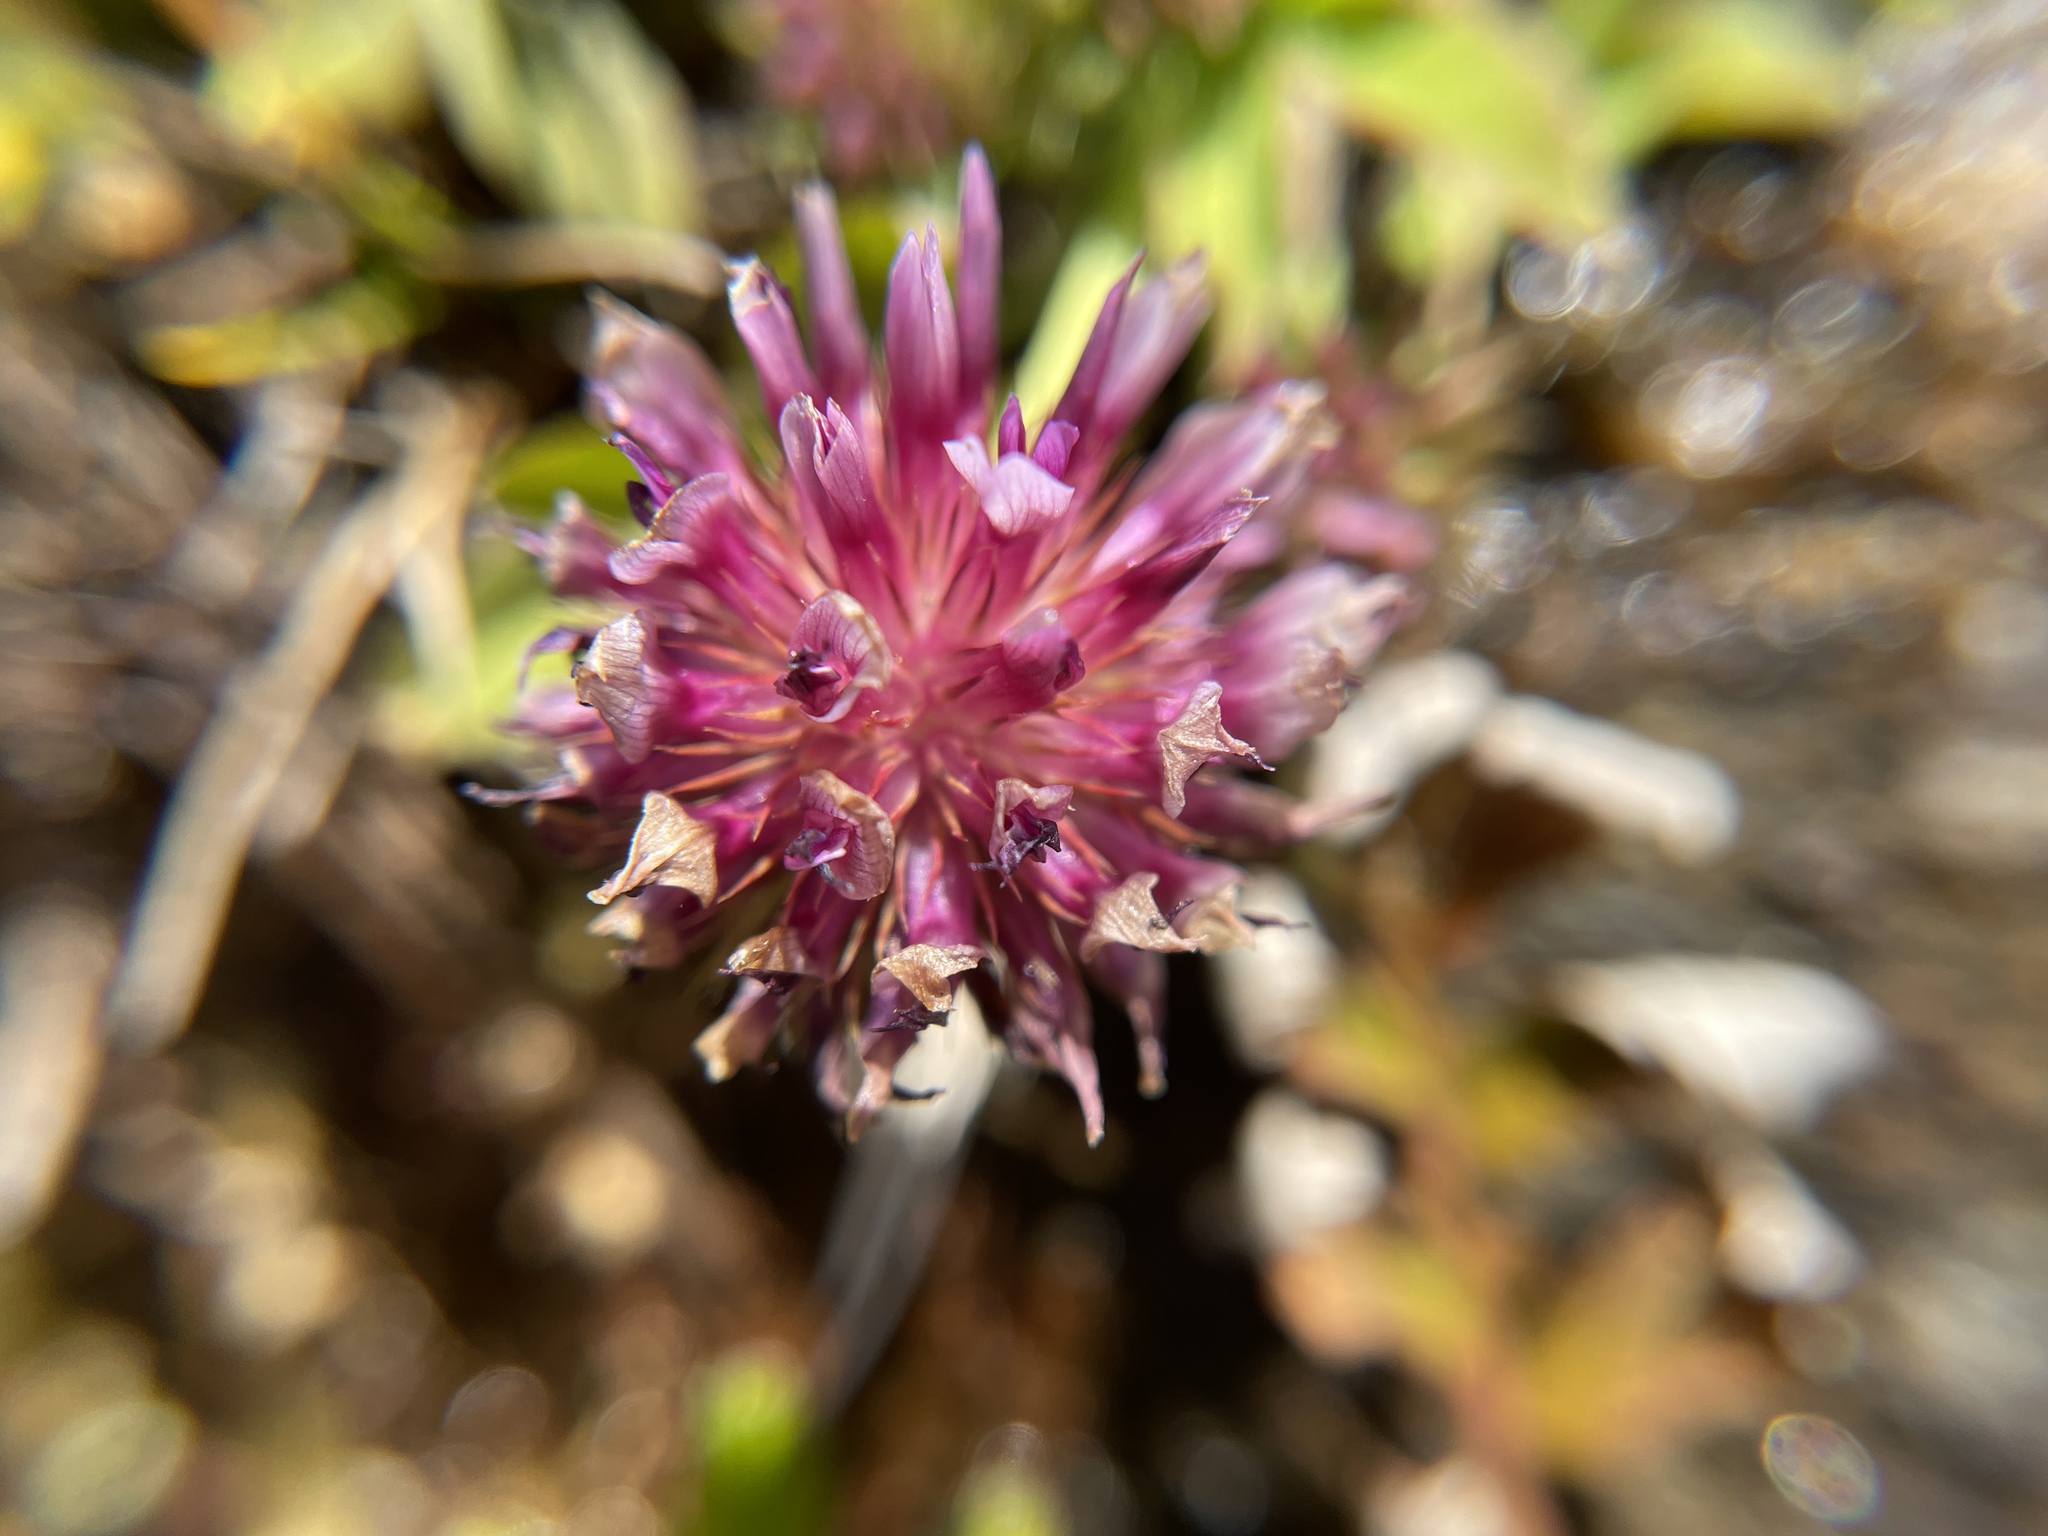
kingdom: Plantae
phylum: Tracheophyta
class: Magnoliopsida
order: Fabales
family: Fabaceae
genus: Trifolium
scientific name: Trifolium wormskioldii
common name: Springbank clover
